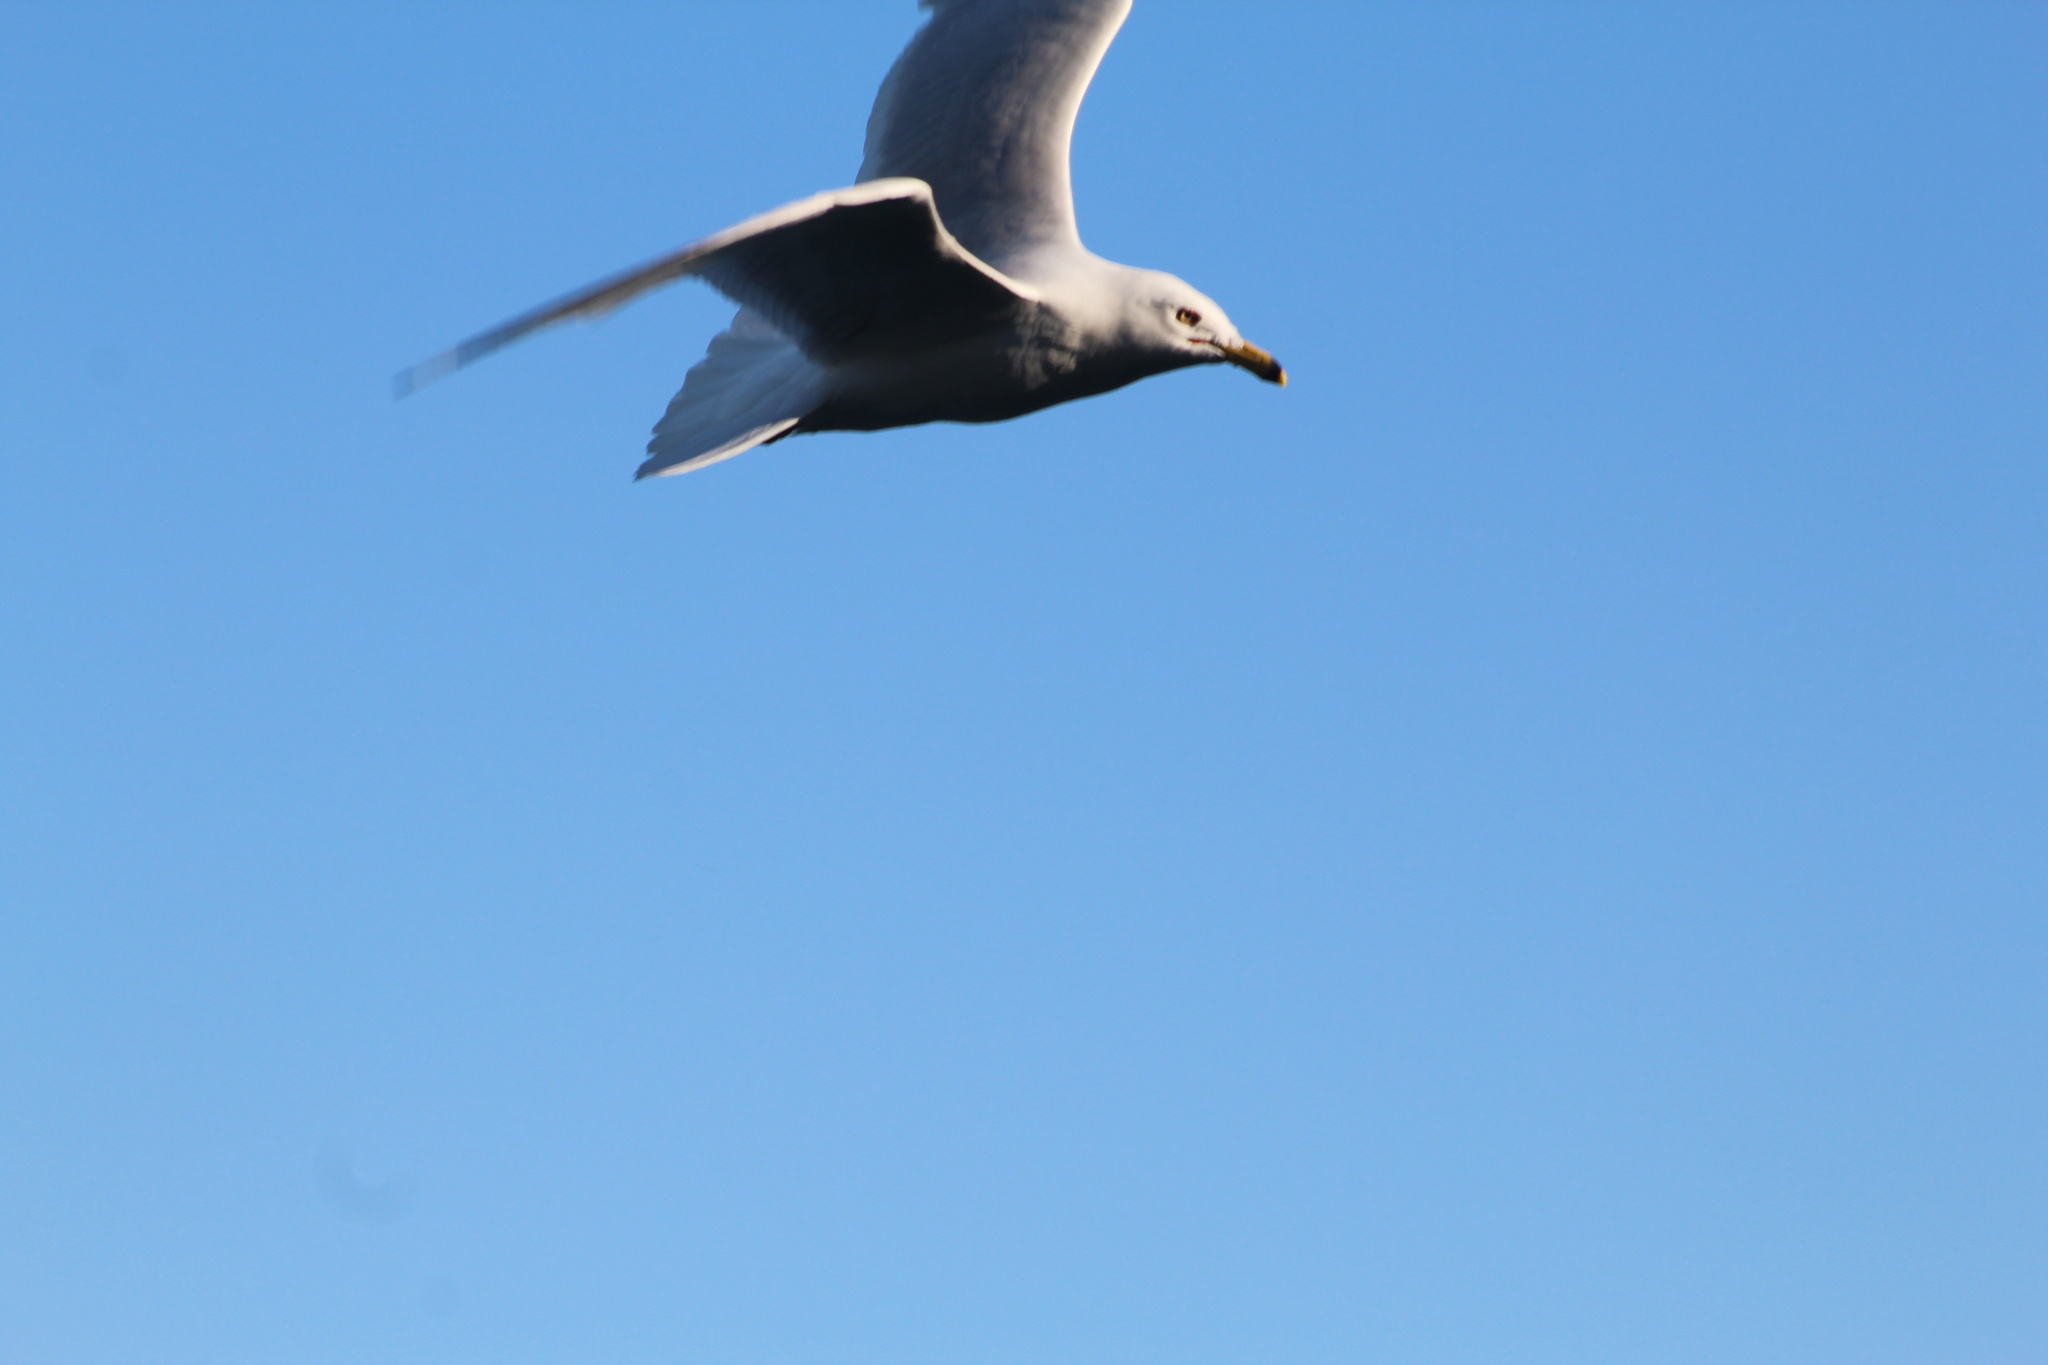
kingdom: Animalia
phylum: Chordata
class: Aves
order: Charadriiformes
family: Laridae
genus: Larus
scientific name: Larus delawarensis
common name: Ring-billed gull
